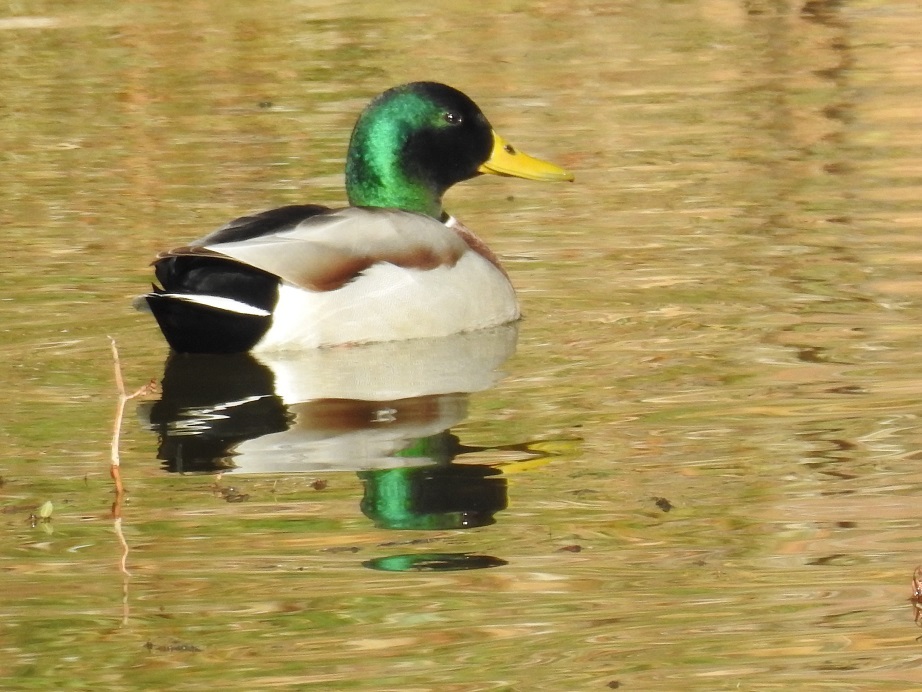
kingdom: Animalia
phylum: Chordata
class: Aves
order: Anseriformes
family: Anatidae
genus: Anas
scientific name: Anas platyrhynchos
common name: Mallard
